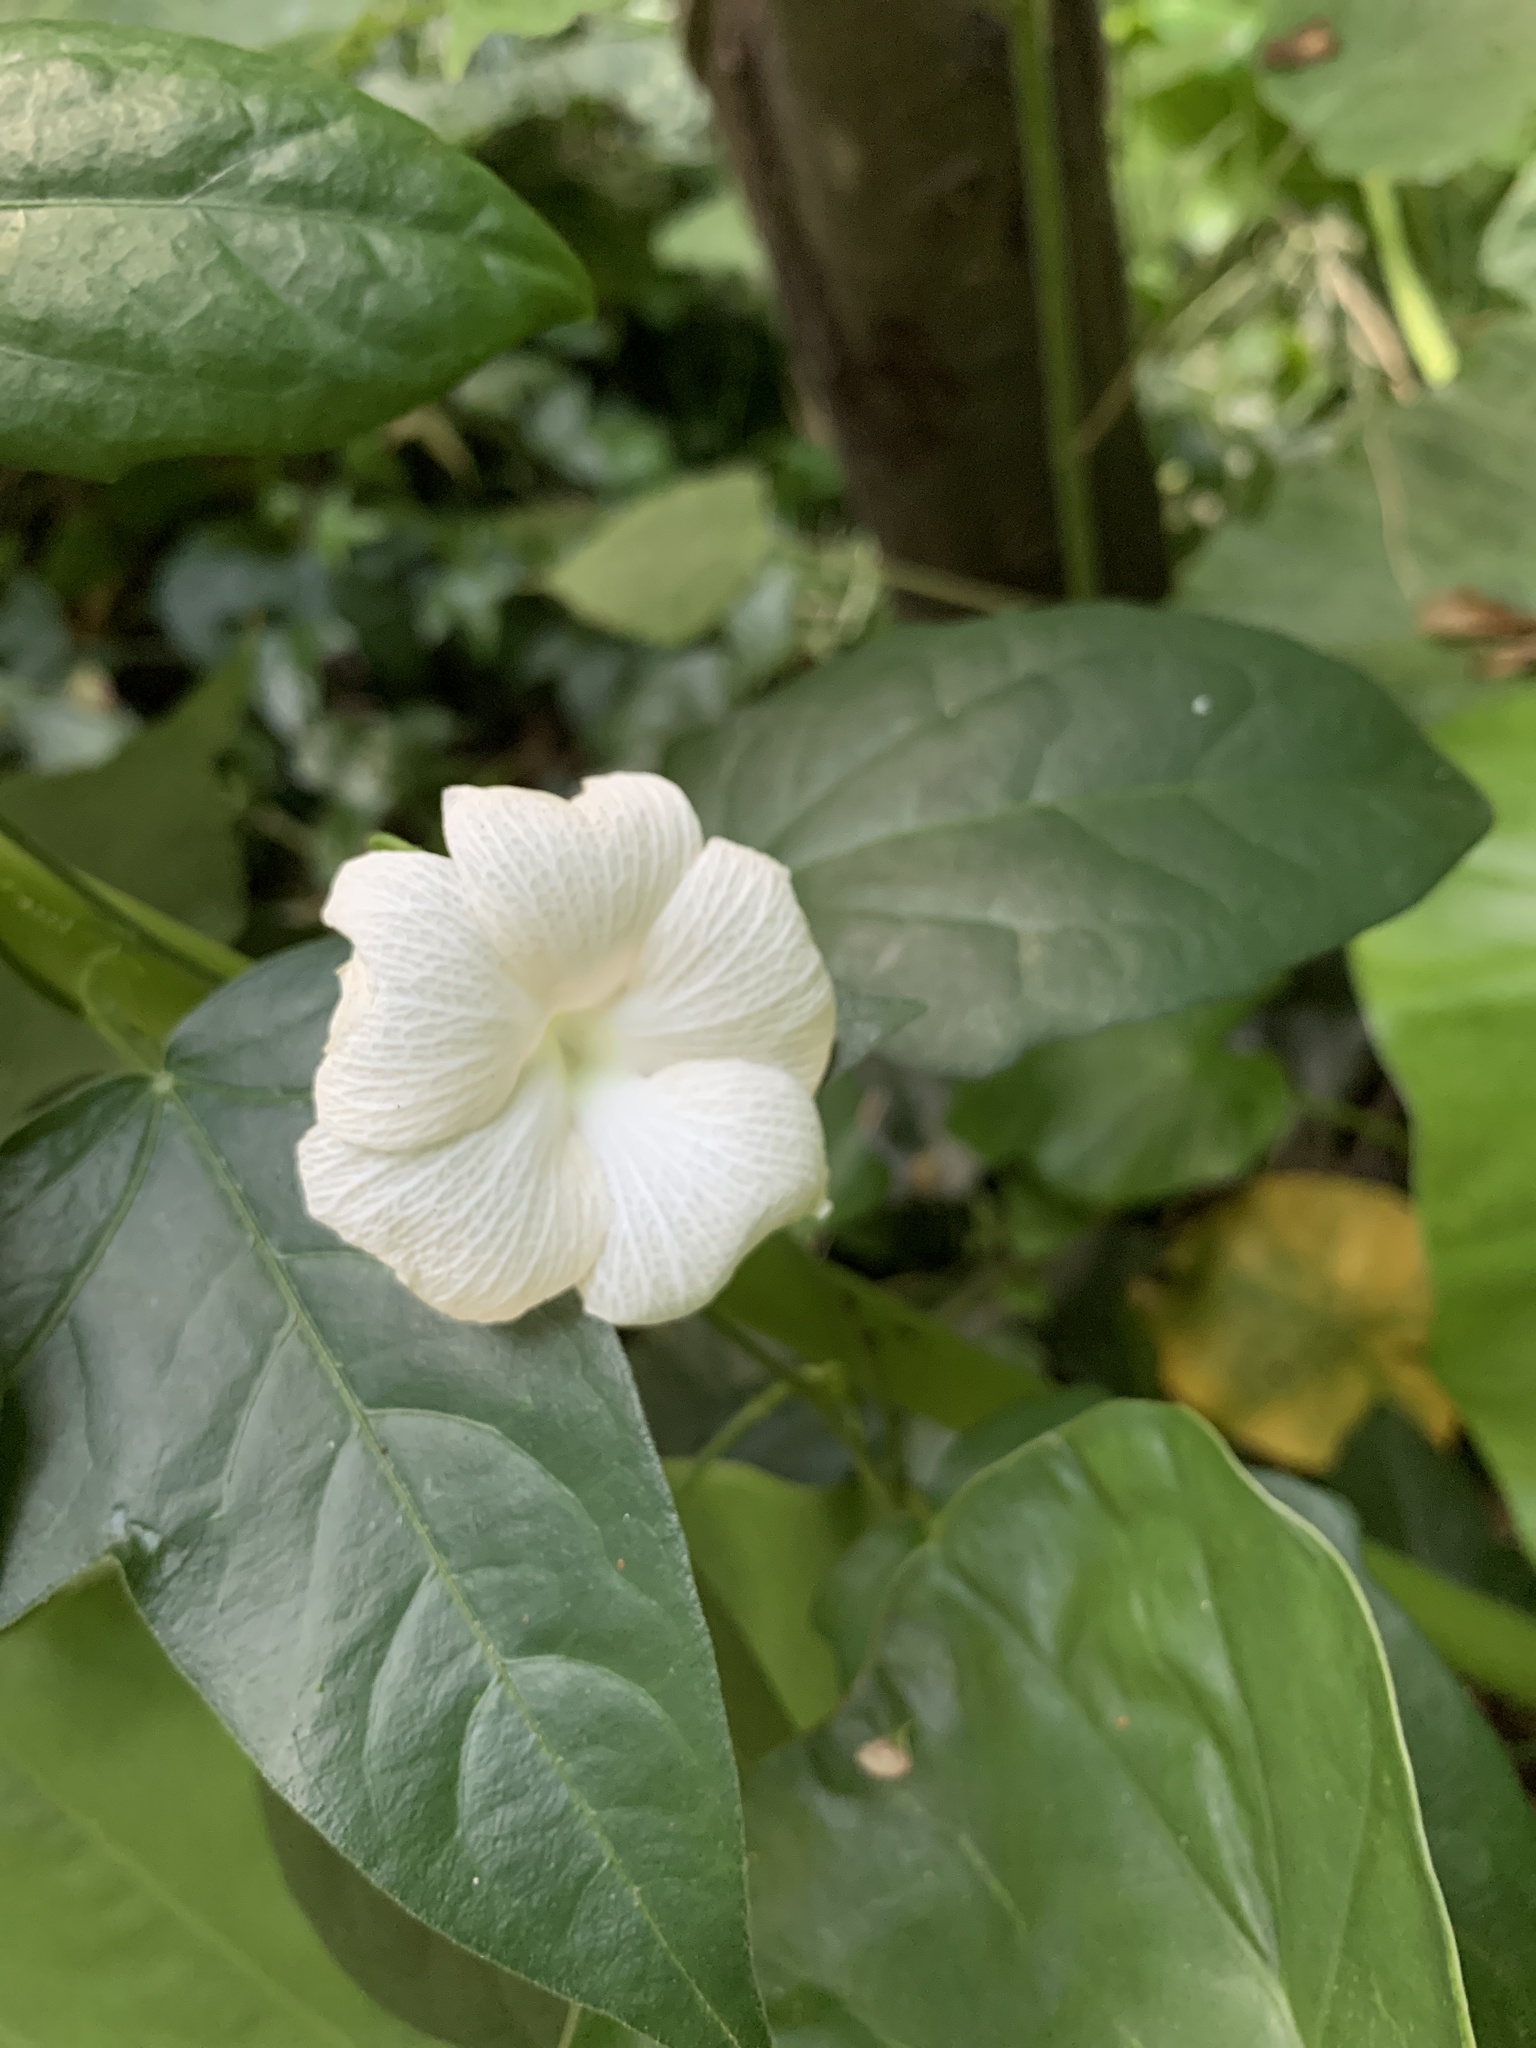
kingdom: Plantae
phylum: Tracheophyta
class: Magnoliopsida
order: Lamiales
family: Acanthaceae
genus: Thunbergia
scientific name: Thunbergia fragrans
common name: Whitelady
